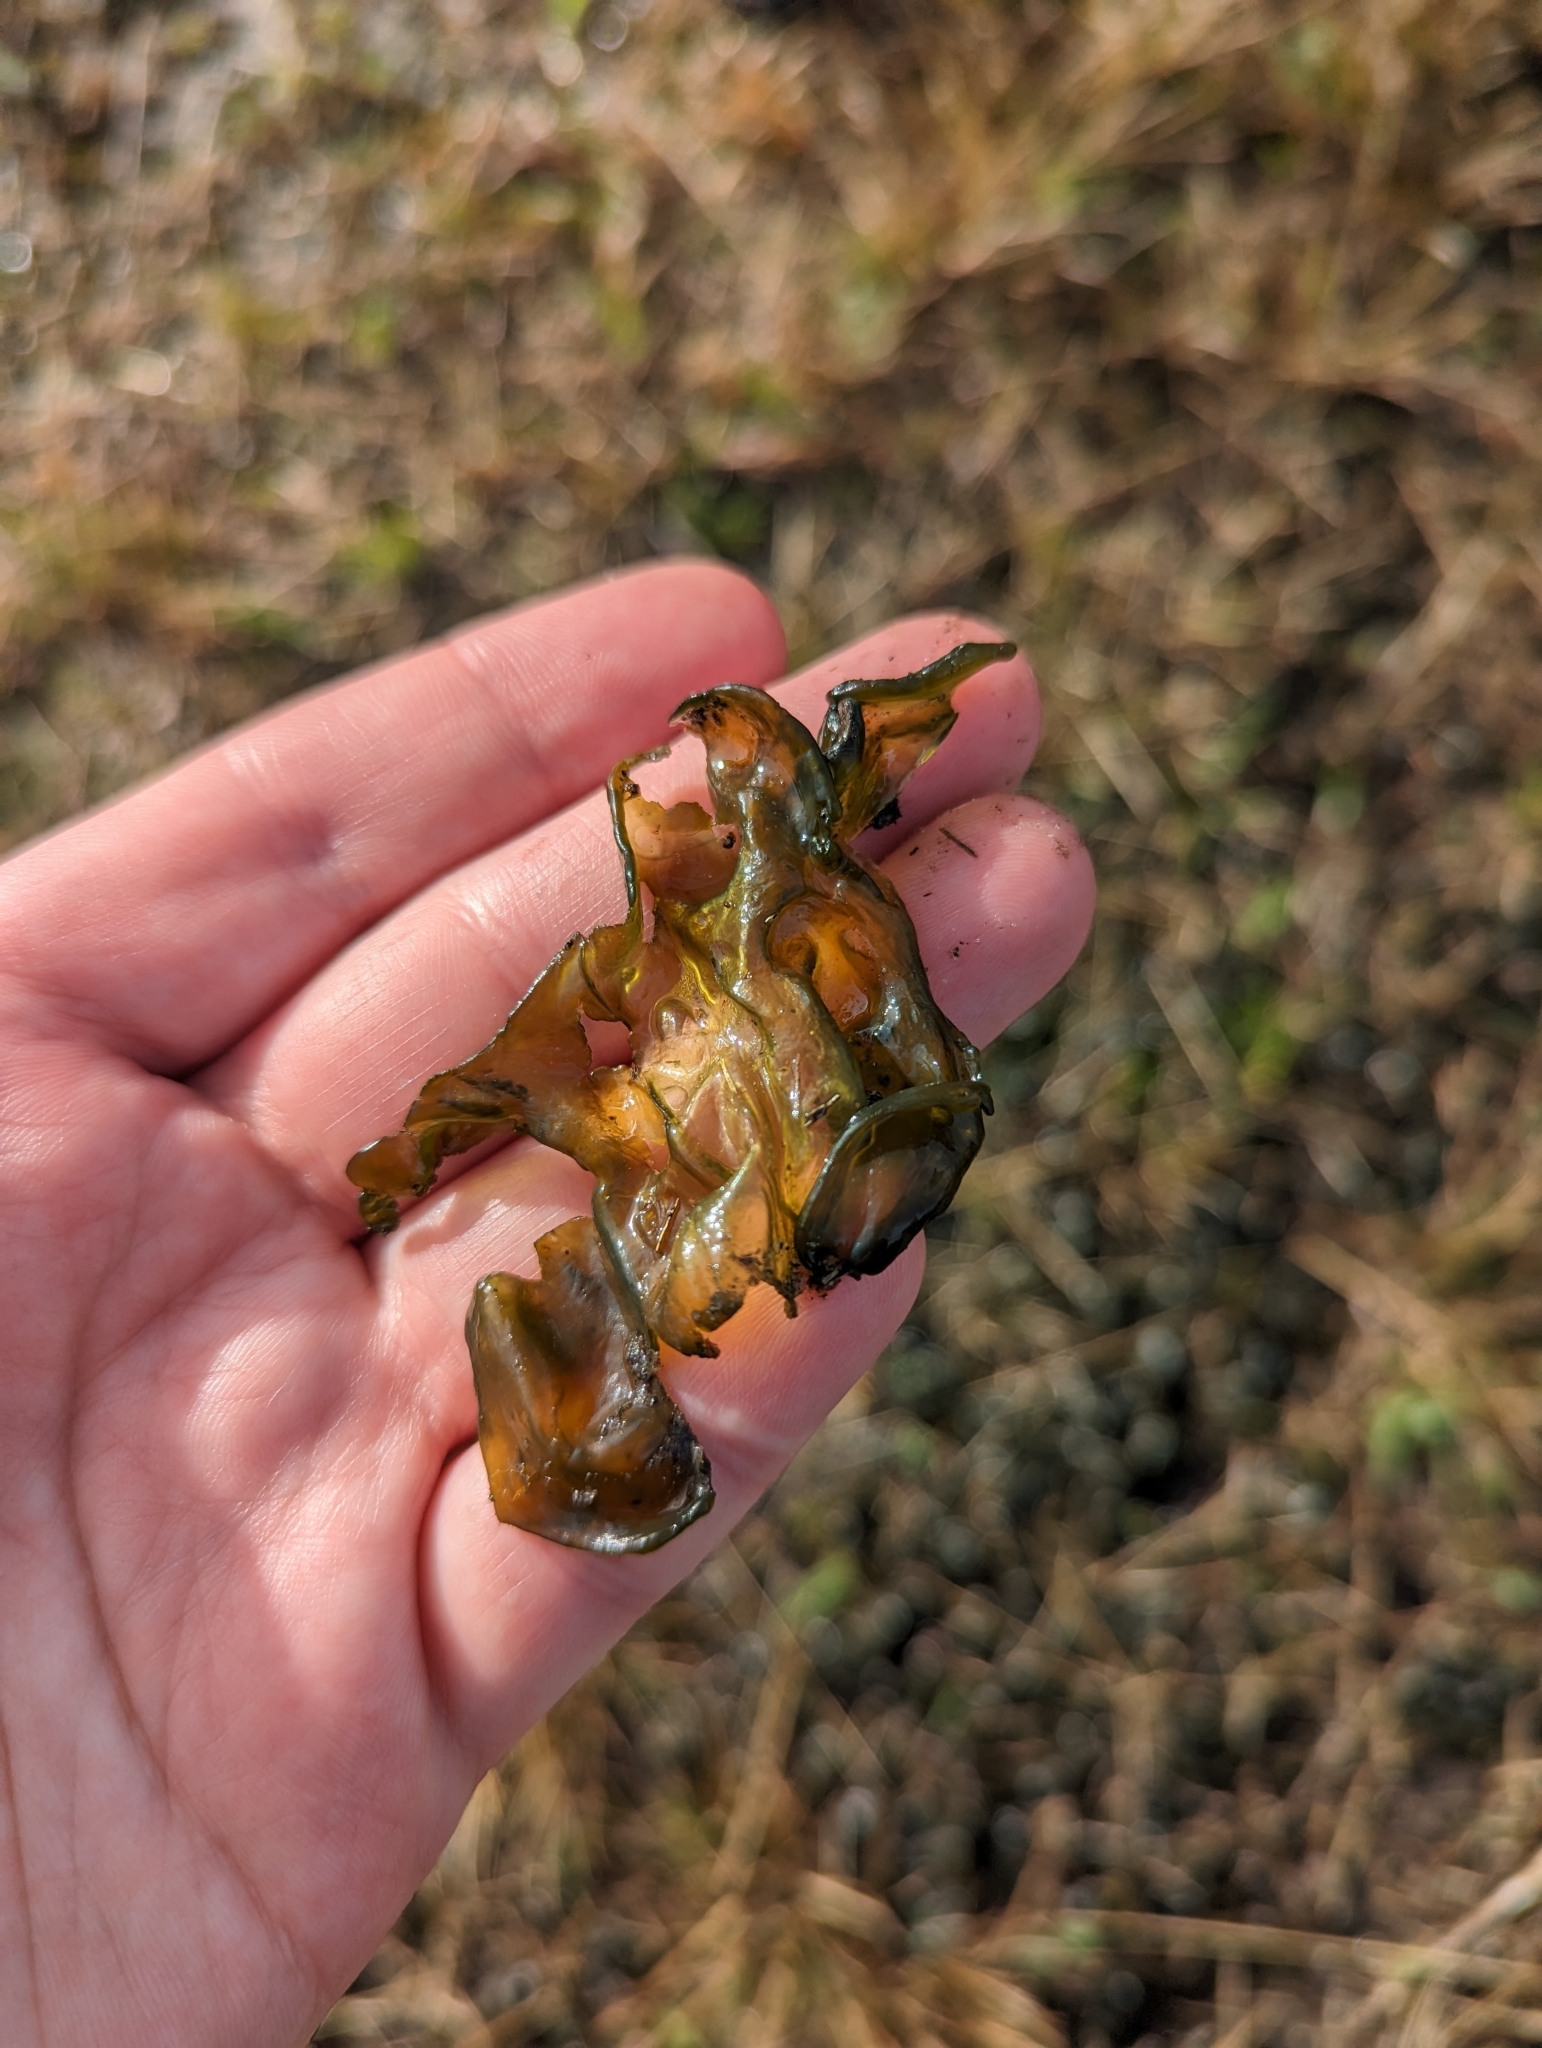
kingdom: Bacteria
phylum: Cyanobacteria
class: Cyanobacteriia
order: Cyanobacteriales
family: Nostocaceae
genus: Nostoc
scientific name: Nostoc commune
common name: Star jelly
